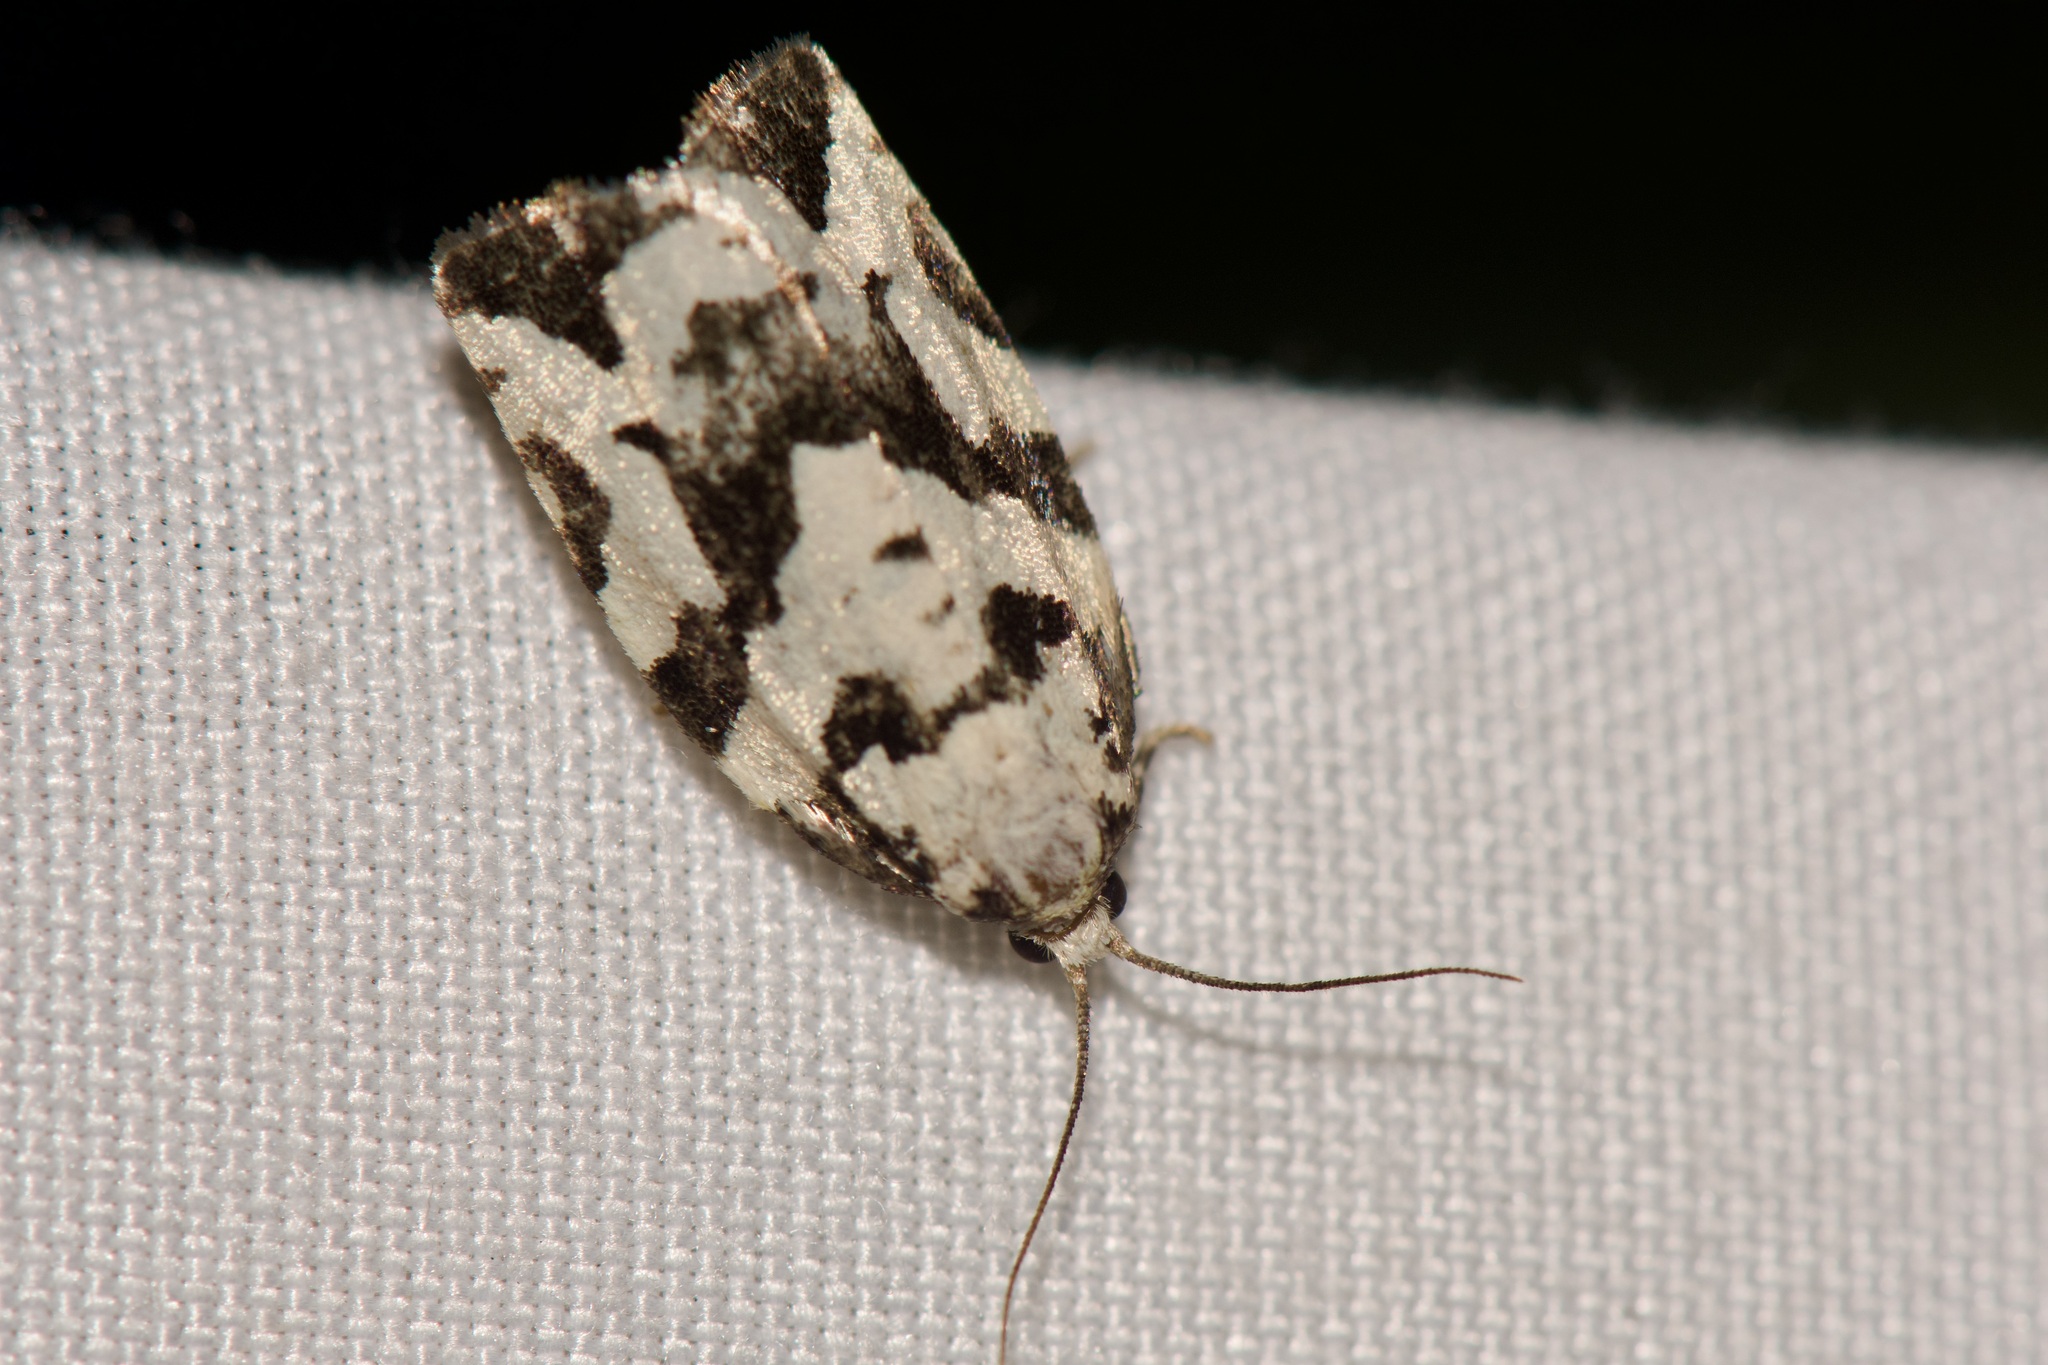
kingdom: Animalia
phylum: Arthropoda
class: Insecta
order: Lepidoptera
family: Tortricidae
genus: Archips
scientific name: Archips dissitana
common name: Boldly-marked archips moth
